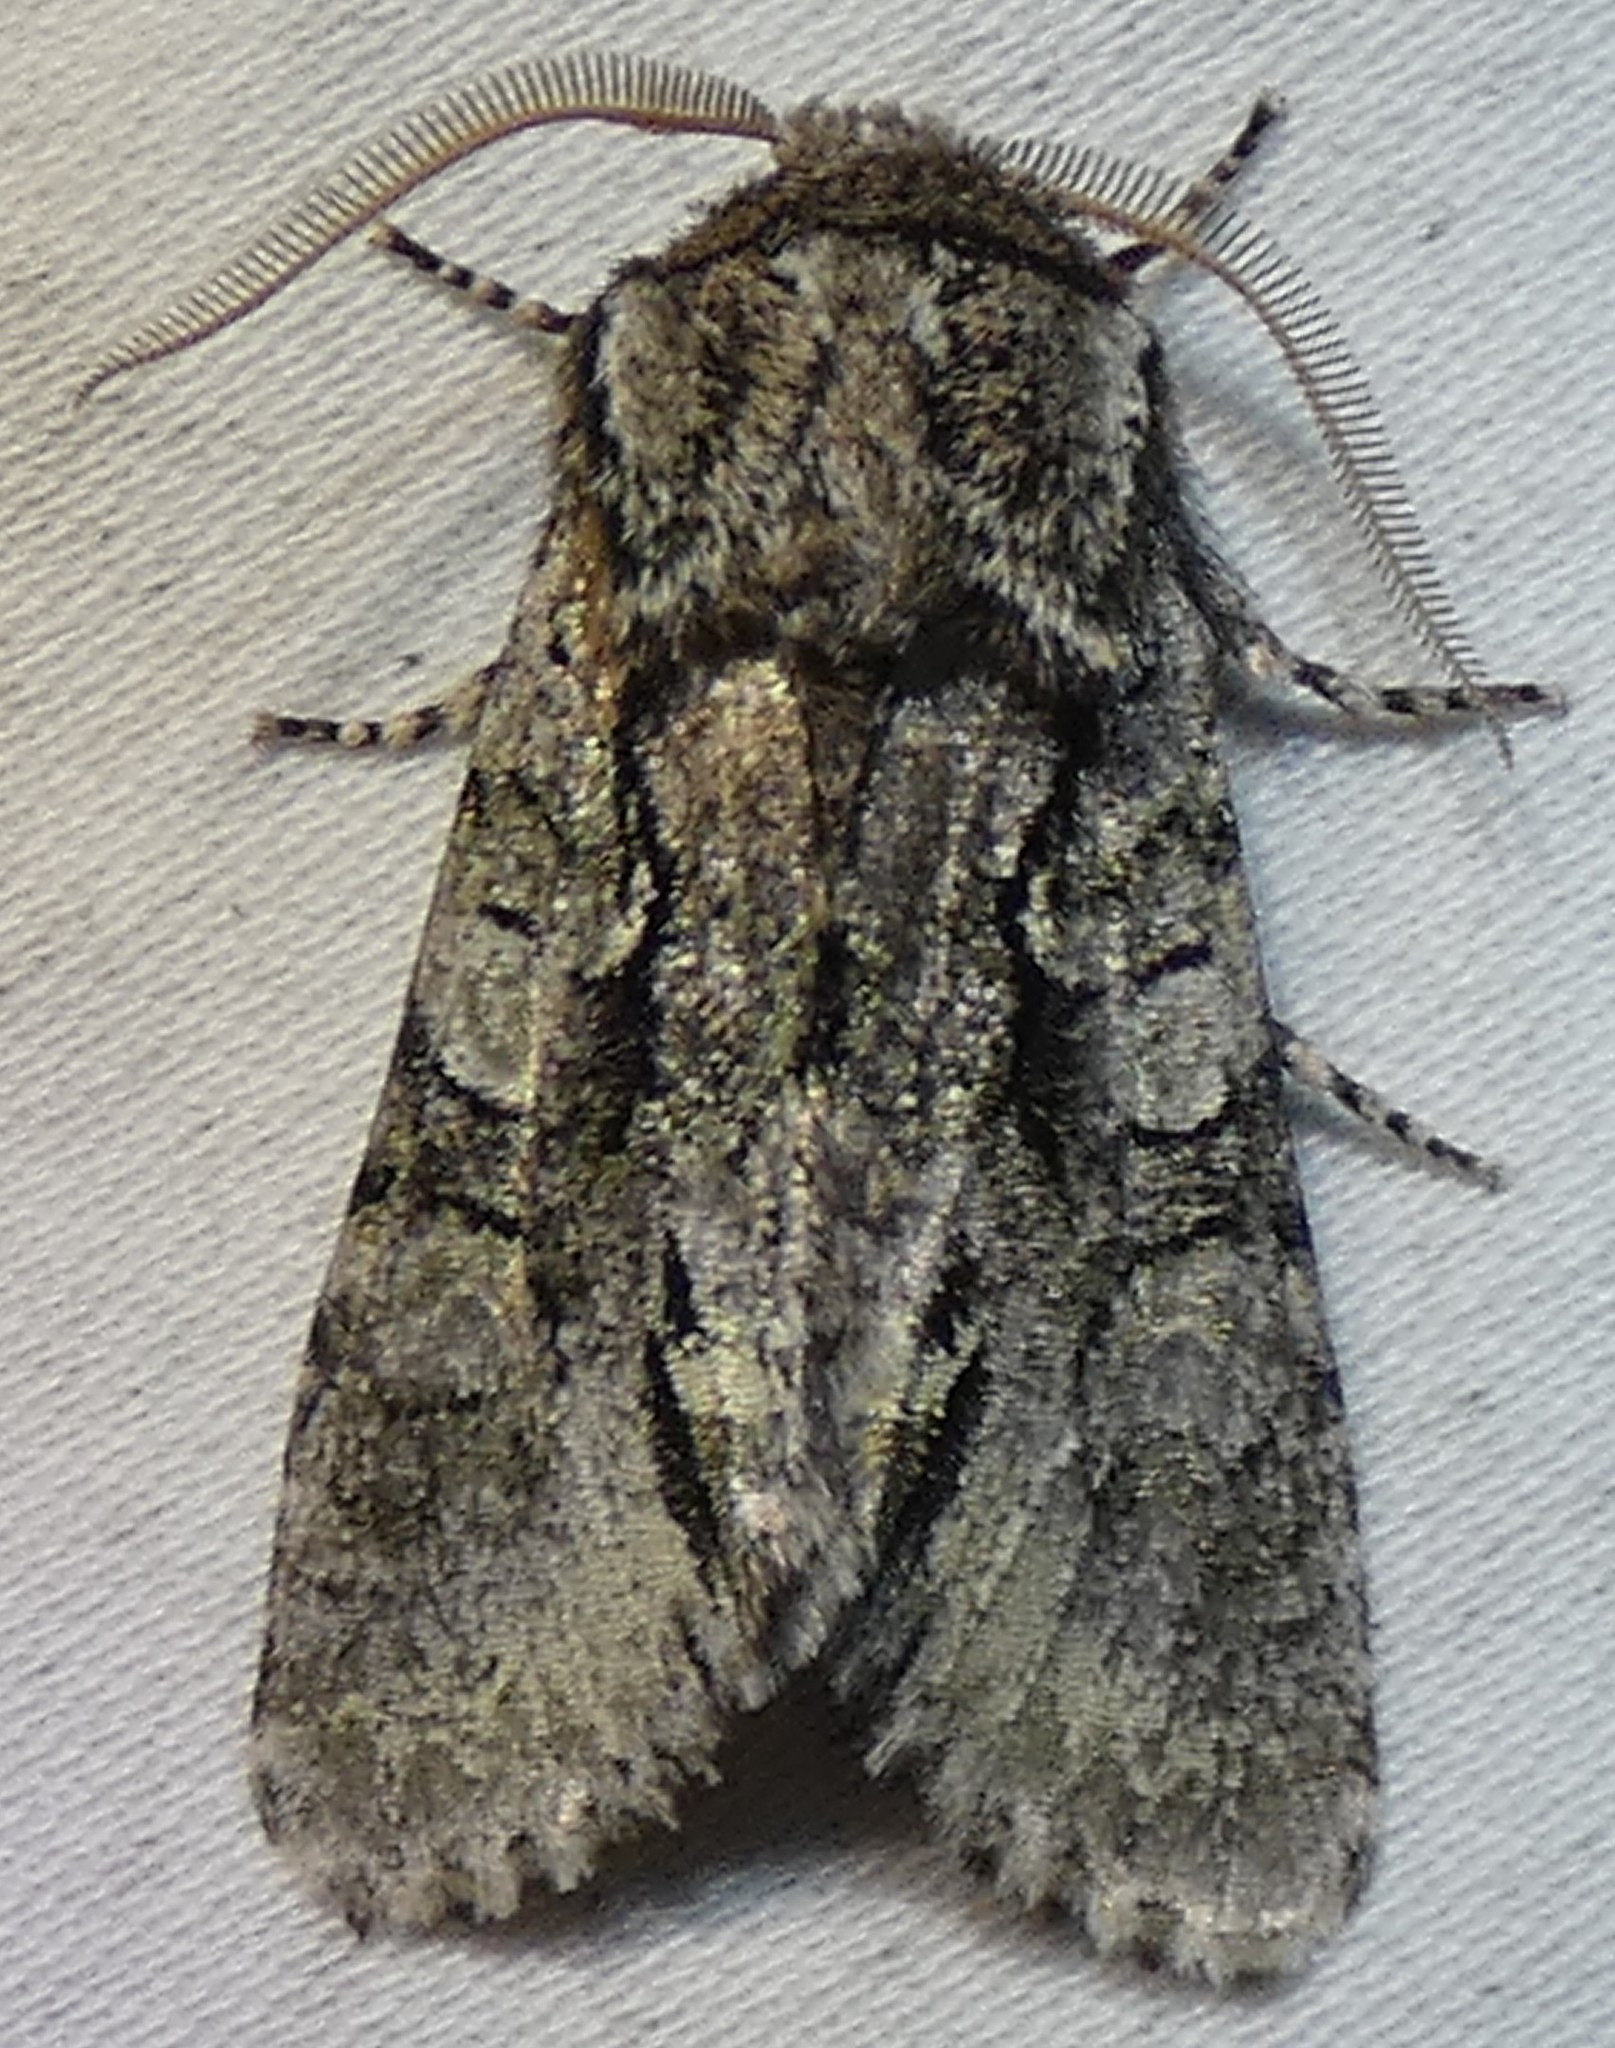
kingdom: Animalia
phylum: Arthropoda
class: Insecta
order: Lepidoptera
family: Noctuidae
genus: Psaphida
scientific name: Psaphida resumens
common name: Figure-eight sallow
